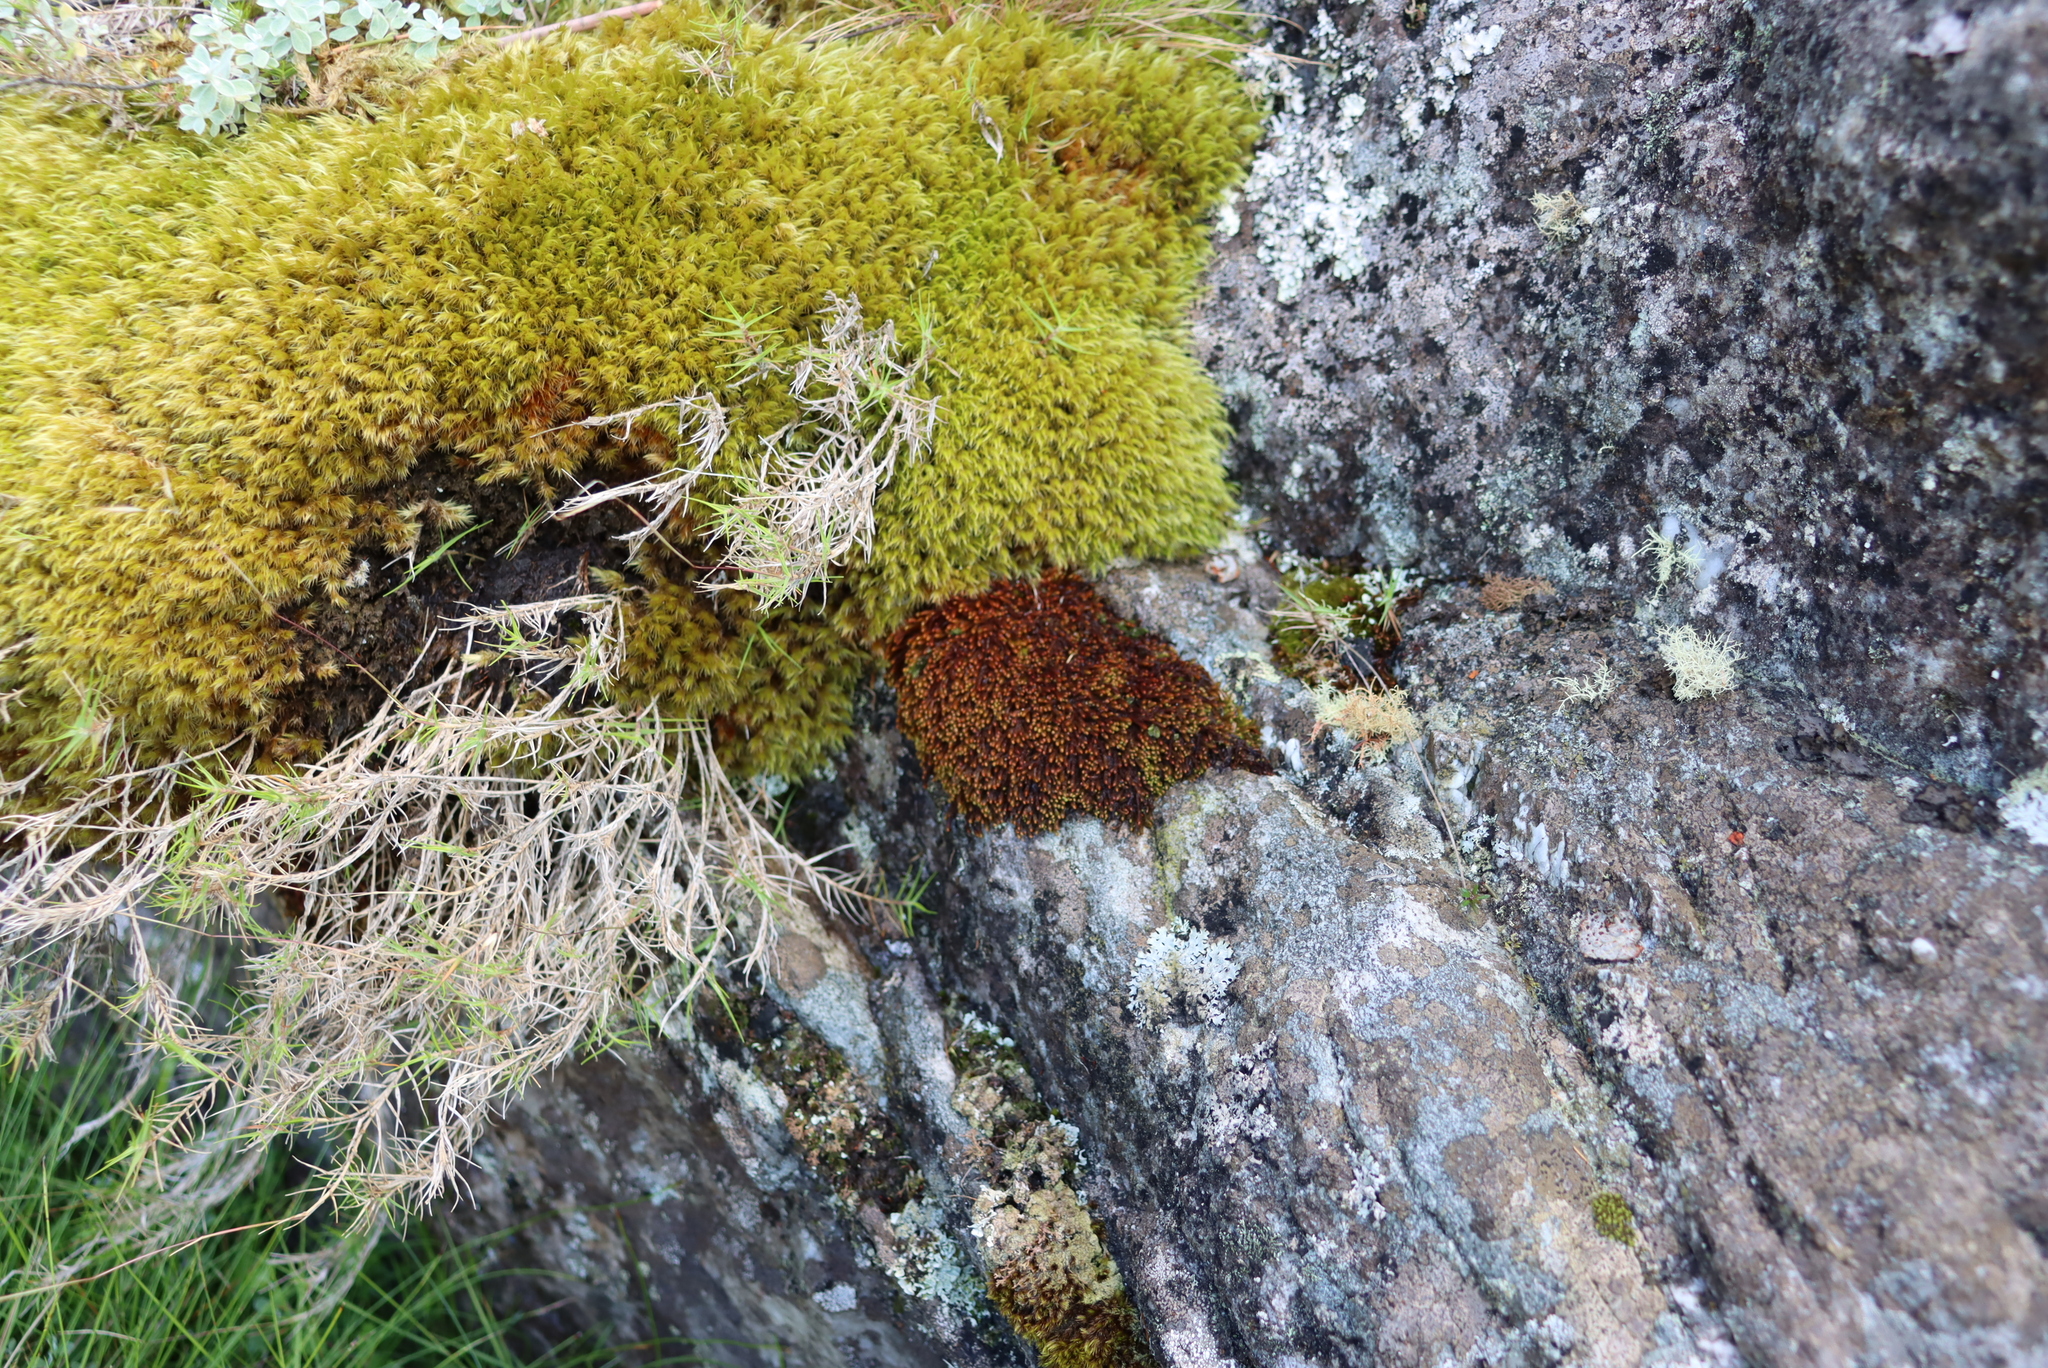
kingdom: Plantae
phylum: Marchantiophyta
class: Jungermanniopsida
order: Jungermanniales
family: Adelanthaceae
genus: Syzygiella
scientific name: Syzygiella colorata
